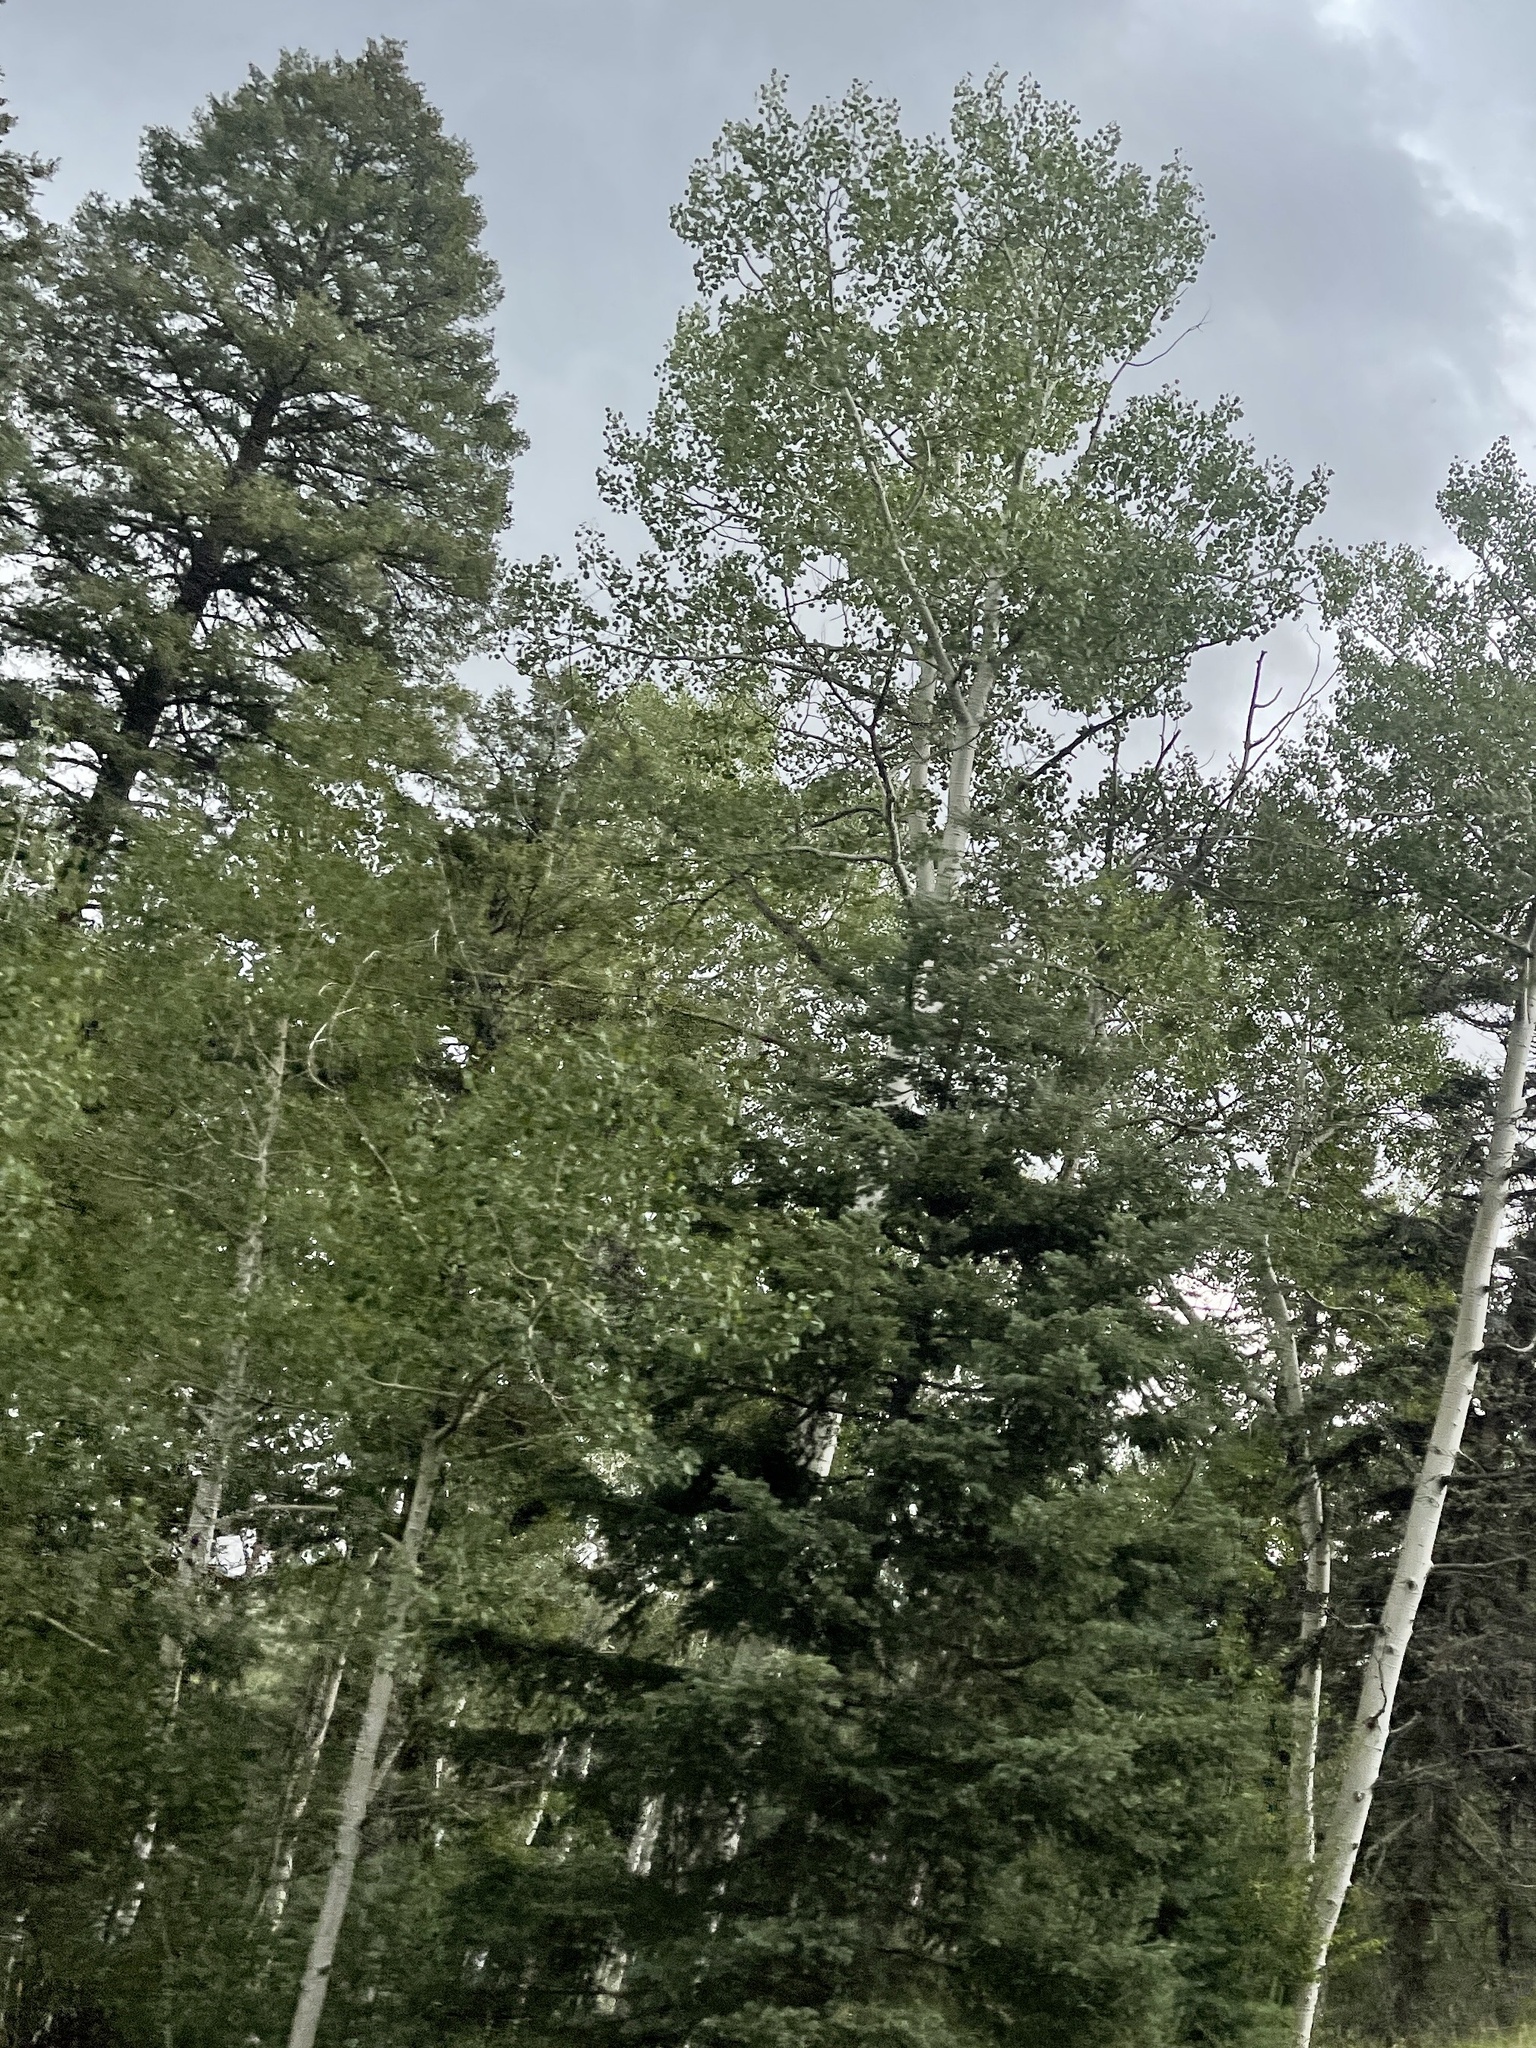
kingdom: Plantae
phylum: Tracheophyta
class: Magnoliopsida
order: Malpighiales
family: Salicaceae
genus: Populus
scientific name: Populus tremuloides
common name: Quaking aspen
